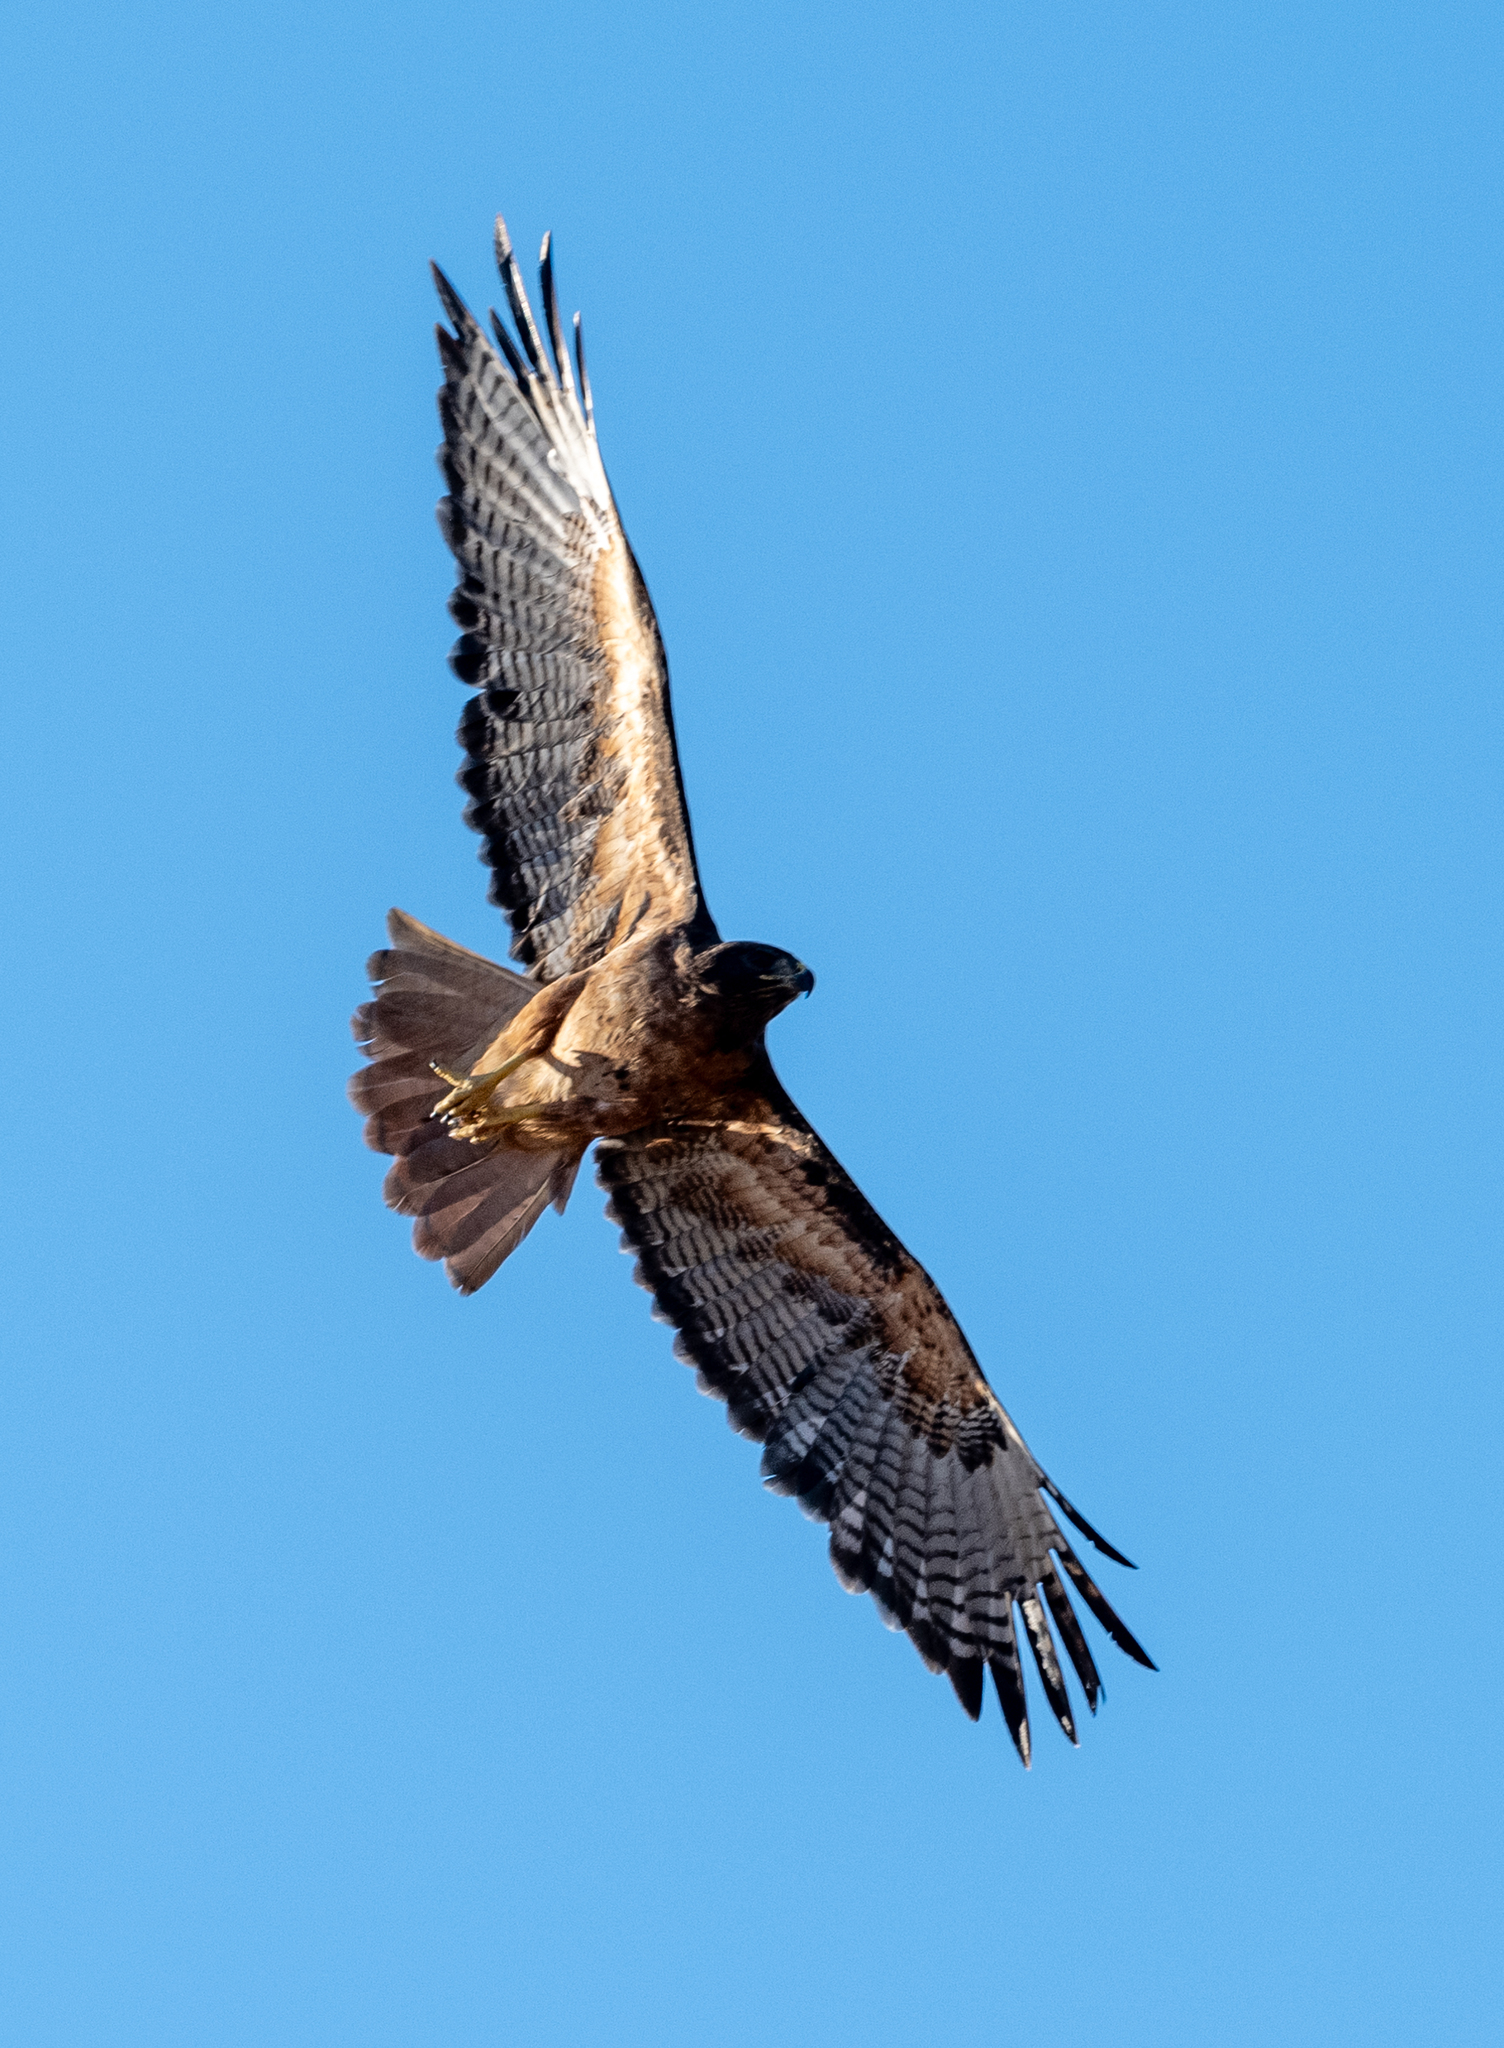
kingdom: Animalia
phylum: Chordata
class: Aves
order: Accipitriformes
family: Accipitridae
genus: Buteo
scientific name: Buteo jamaicensis
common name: Red-tailed hawk
